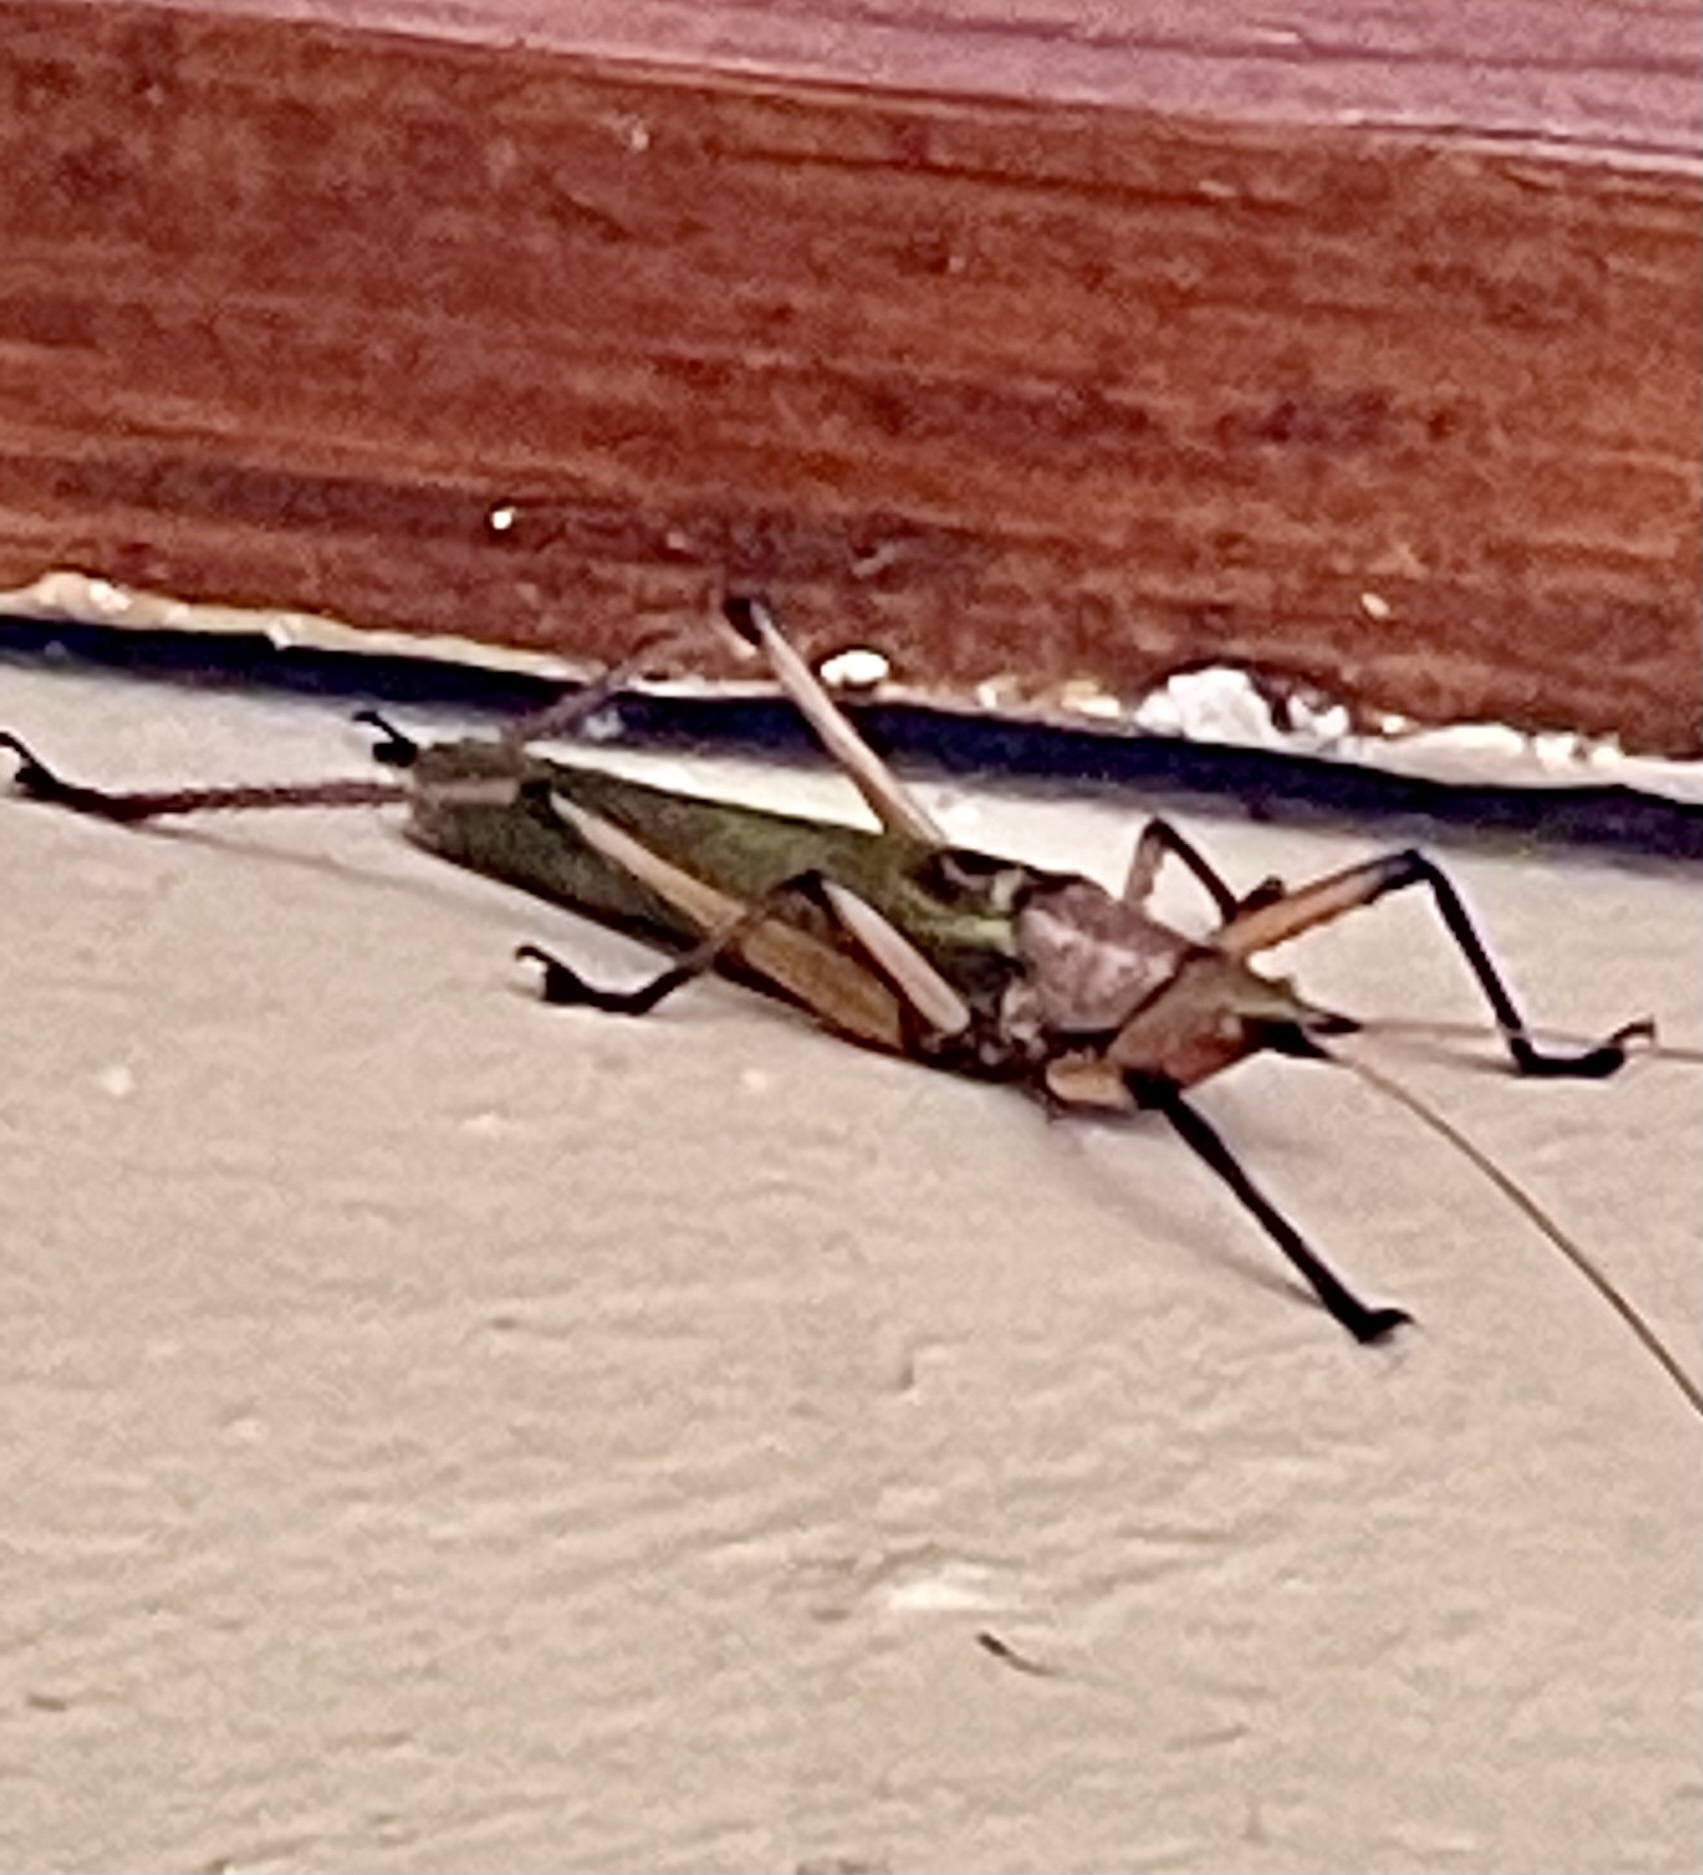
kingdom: Animalia
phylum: Arthropoda
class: Insecta
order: Orthoptera
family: Tettigoniidae
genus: Odontolakis
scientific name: Odontolakis sexpunctata
